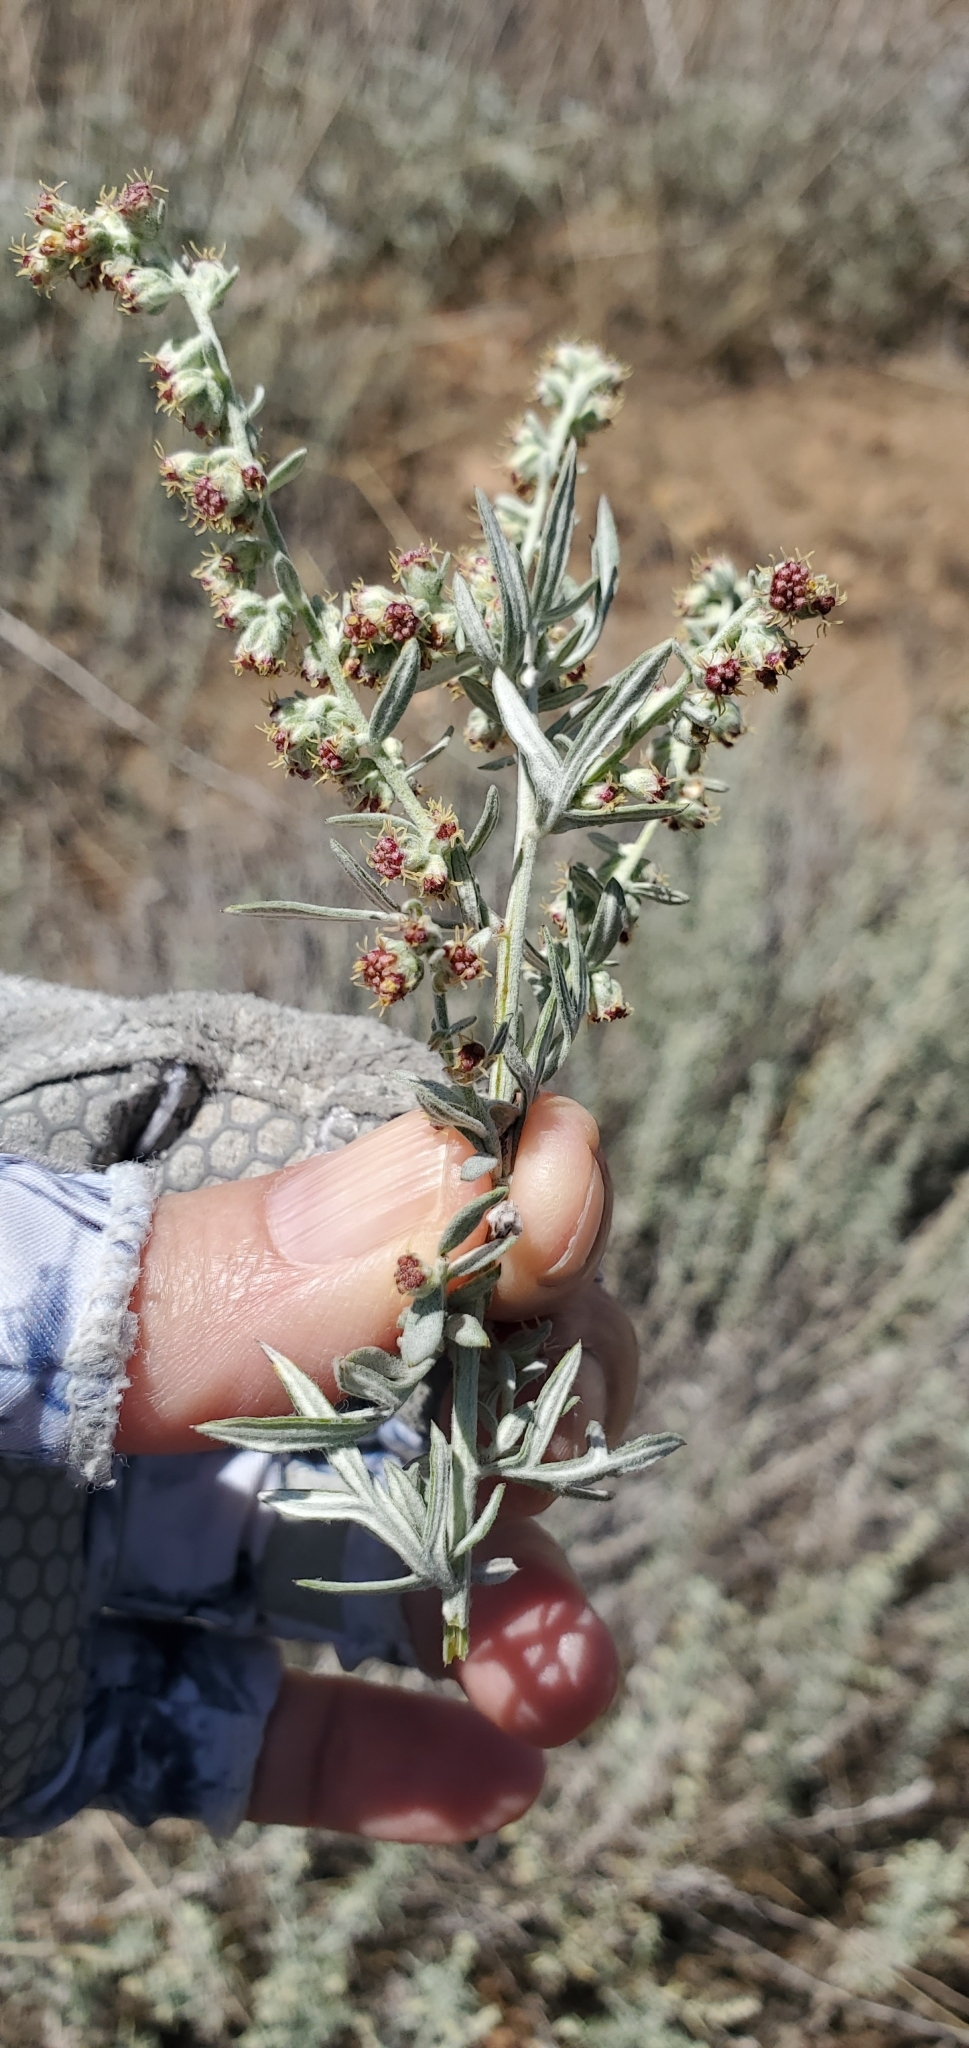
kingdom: Plantae
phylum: Tracheophyta
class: Magnoliopsida
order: Asterales
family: Asteraceae
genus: Artemisia
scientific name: Artemisia ludoviciana
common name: Western mugwort
